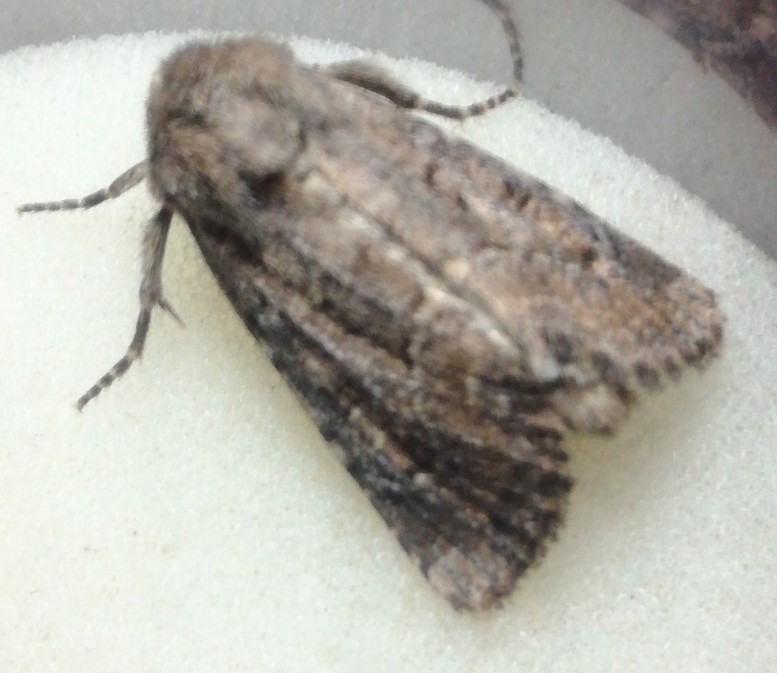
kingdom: Animalia
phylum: Arthropoda
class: Insecta
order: Lepidoptera
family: Noctuidae
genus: Luperina
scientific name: Luperina testacea
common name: Flounced rustic
